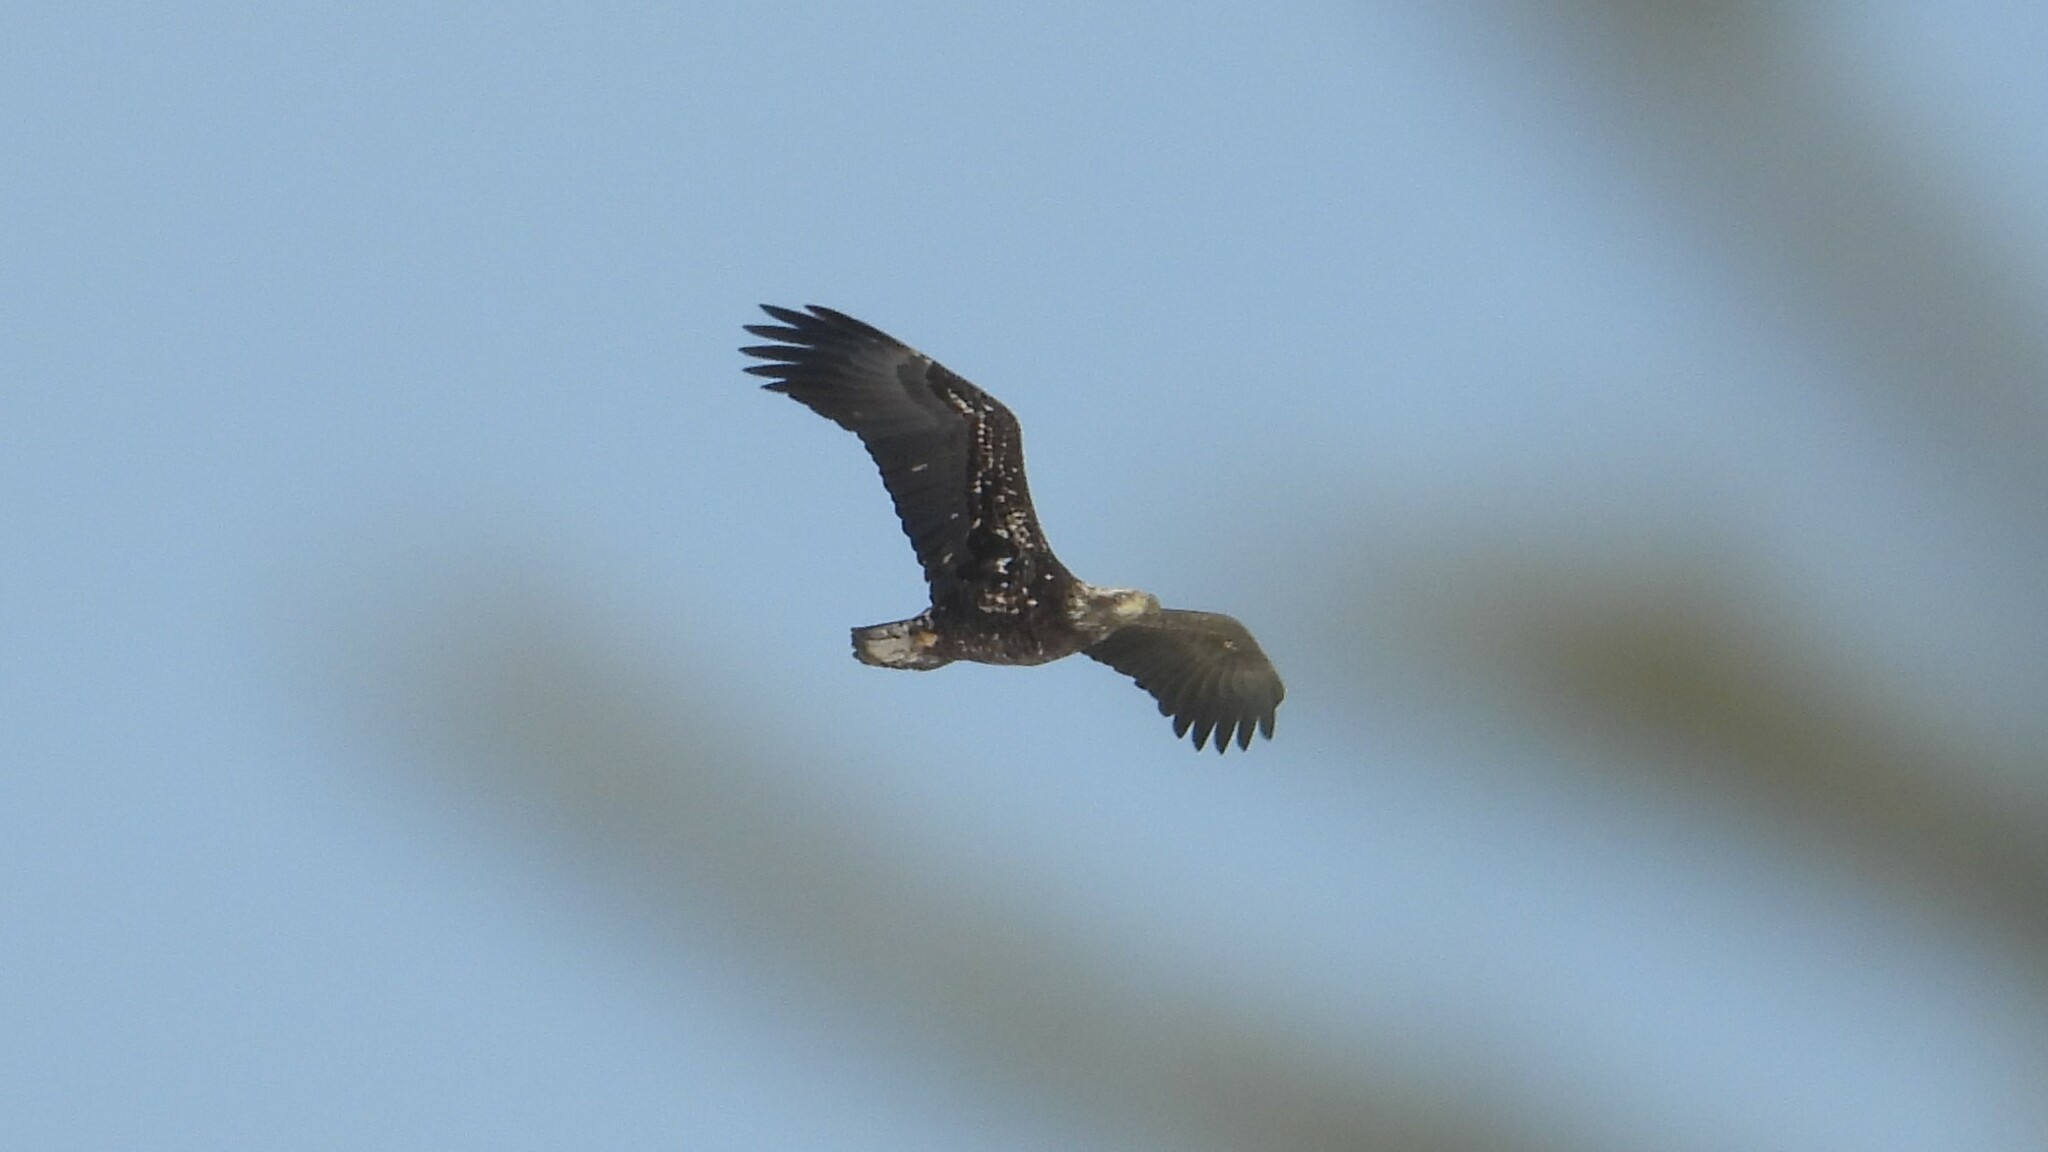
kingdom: Animalia
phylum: Chordata
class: Aves
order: Accipitriformes
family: Accipitridae
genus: Haliaeetus
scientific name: Haliaeetus leucocephalus
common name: Bald eagle
